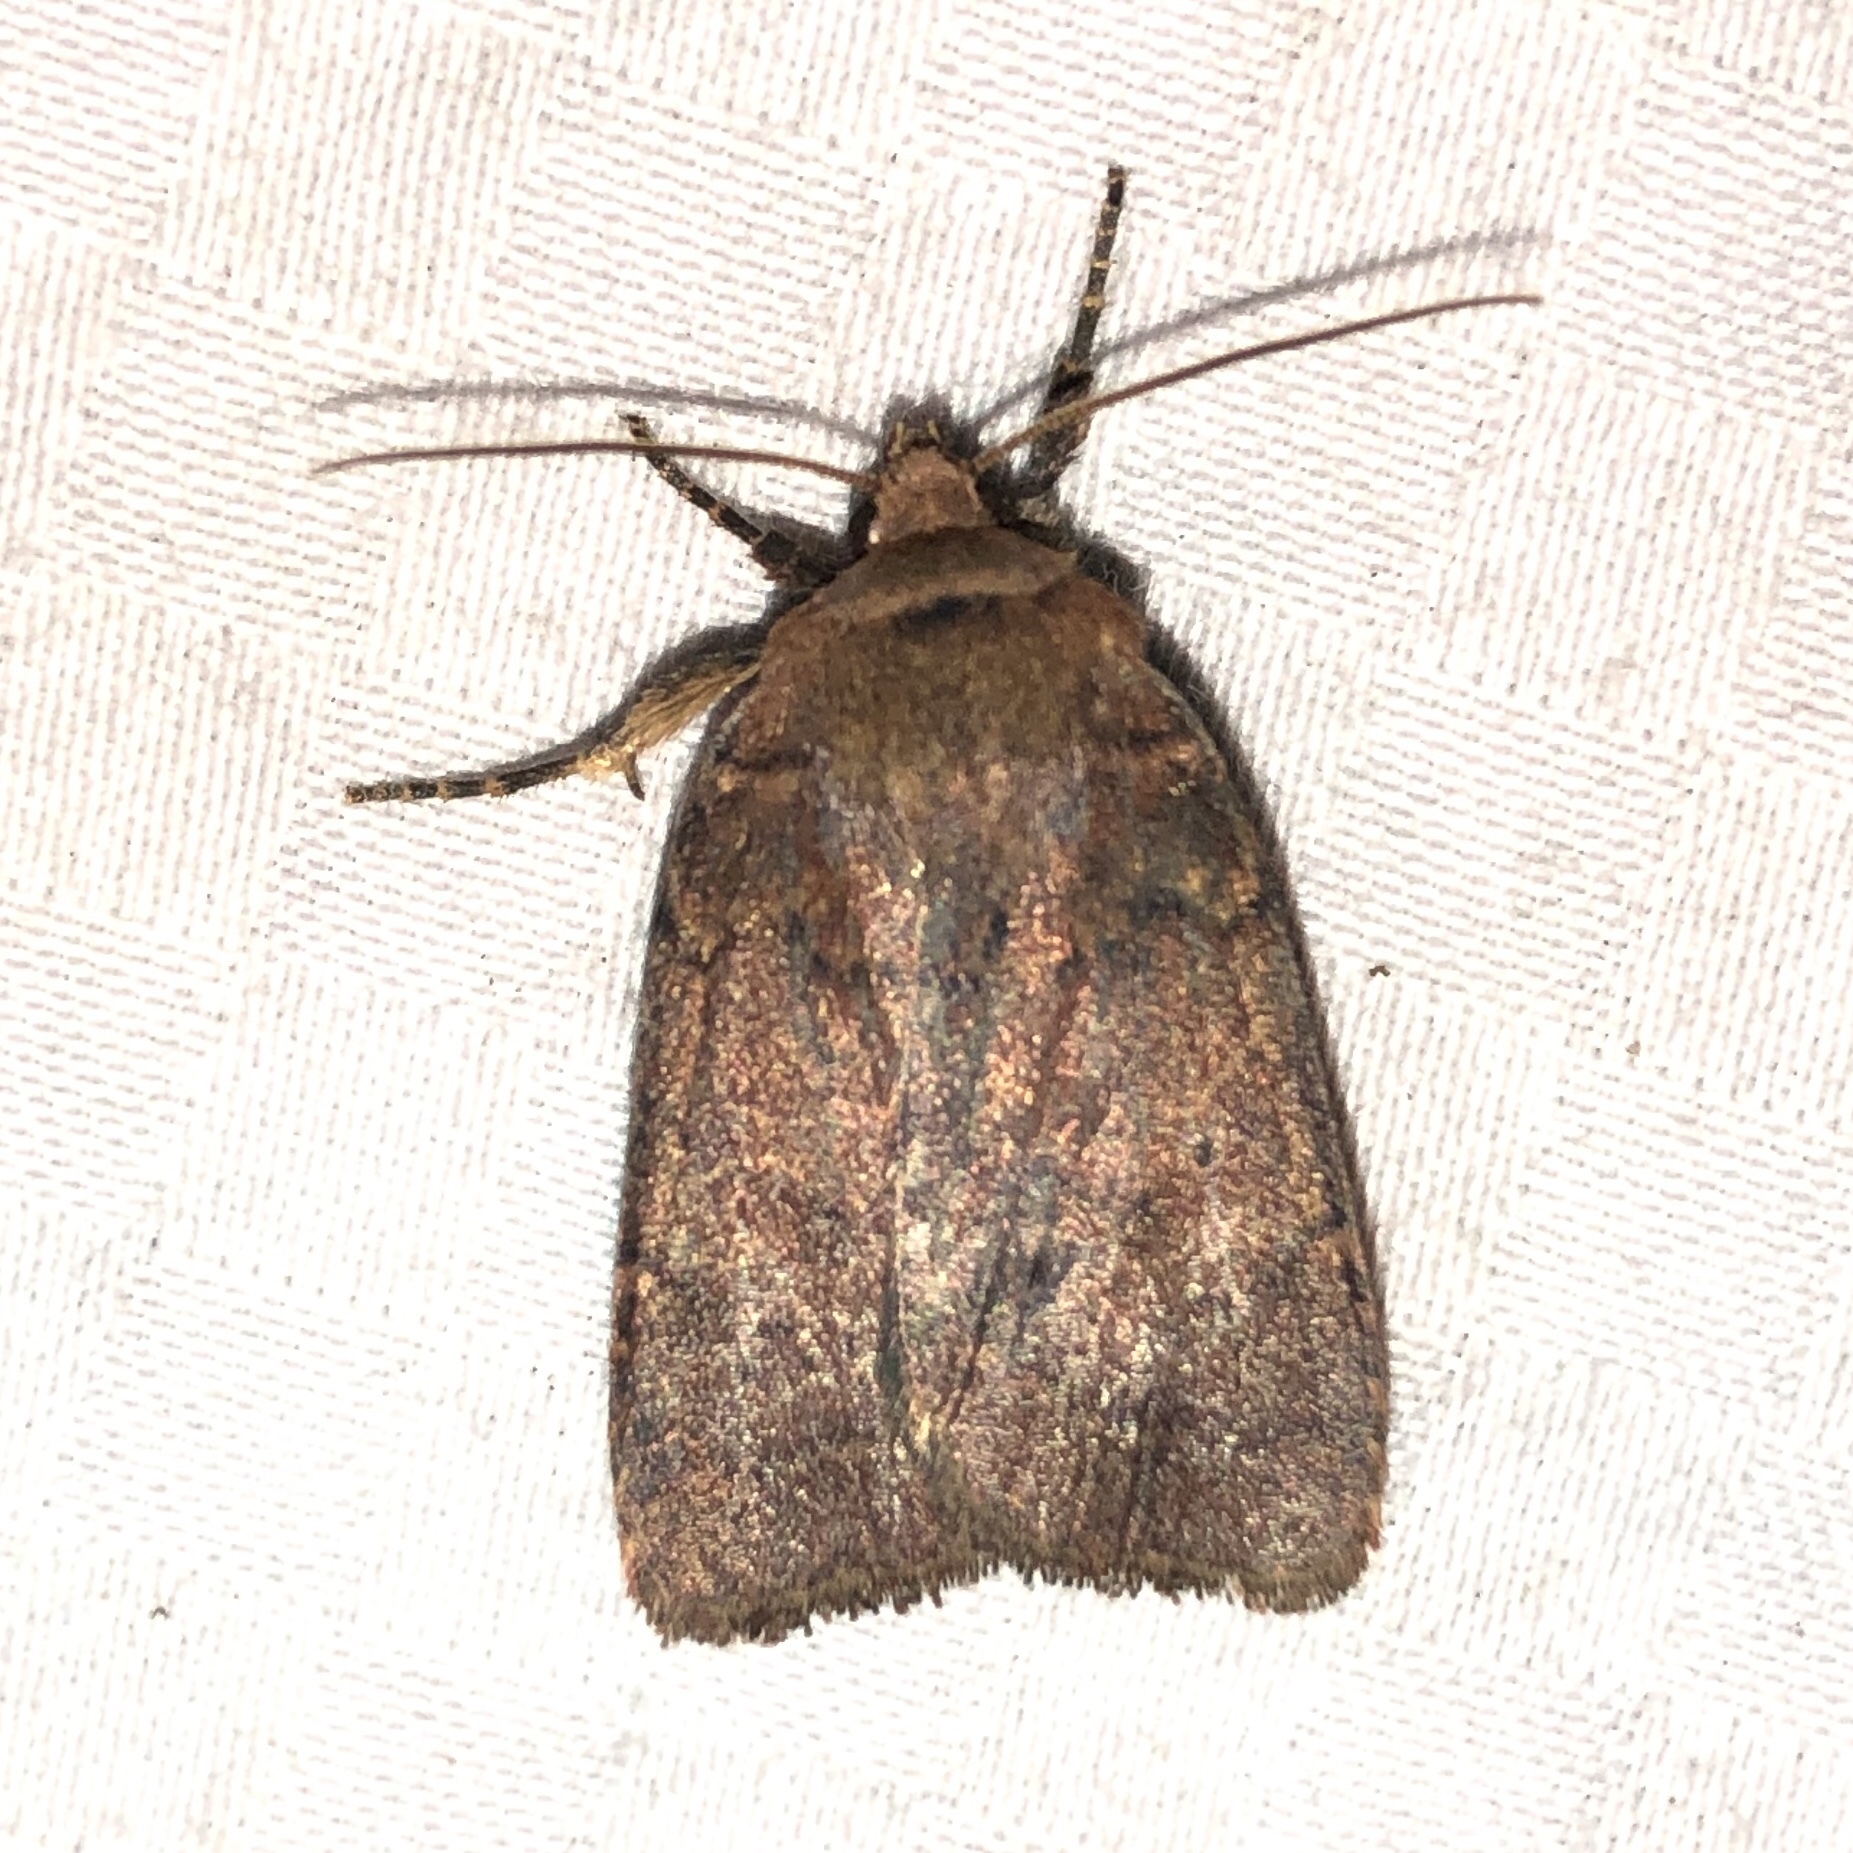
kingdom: Animalia
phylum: Arthropoda
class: Insecta
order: Lepidoptera
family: Noctuidae
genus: Pseudorthodes
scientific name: Pseudorthodes vecors
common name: Small brown quaker
